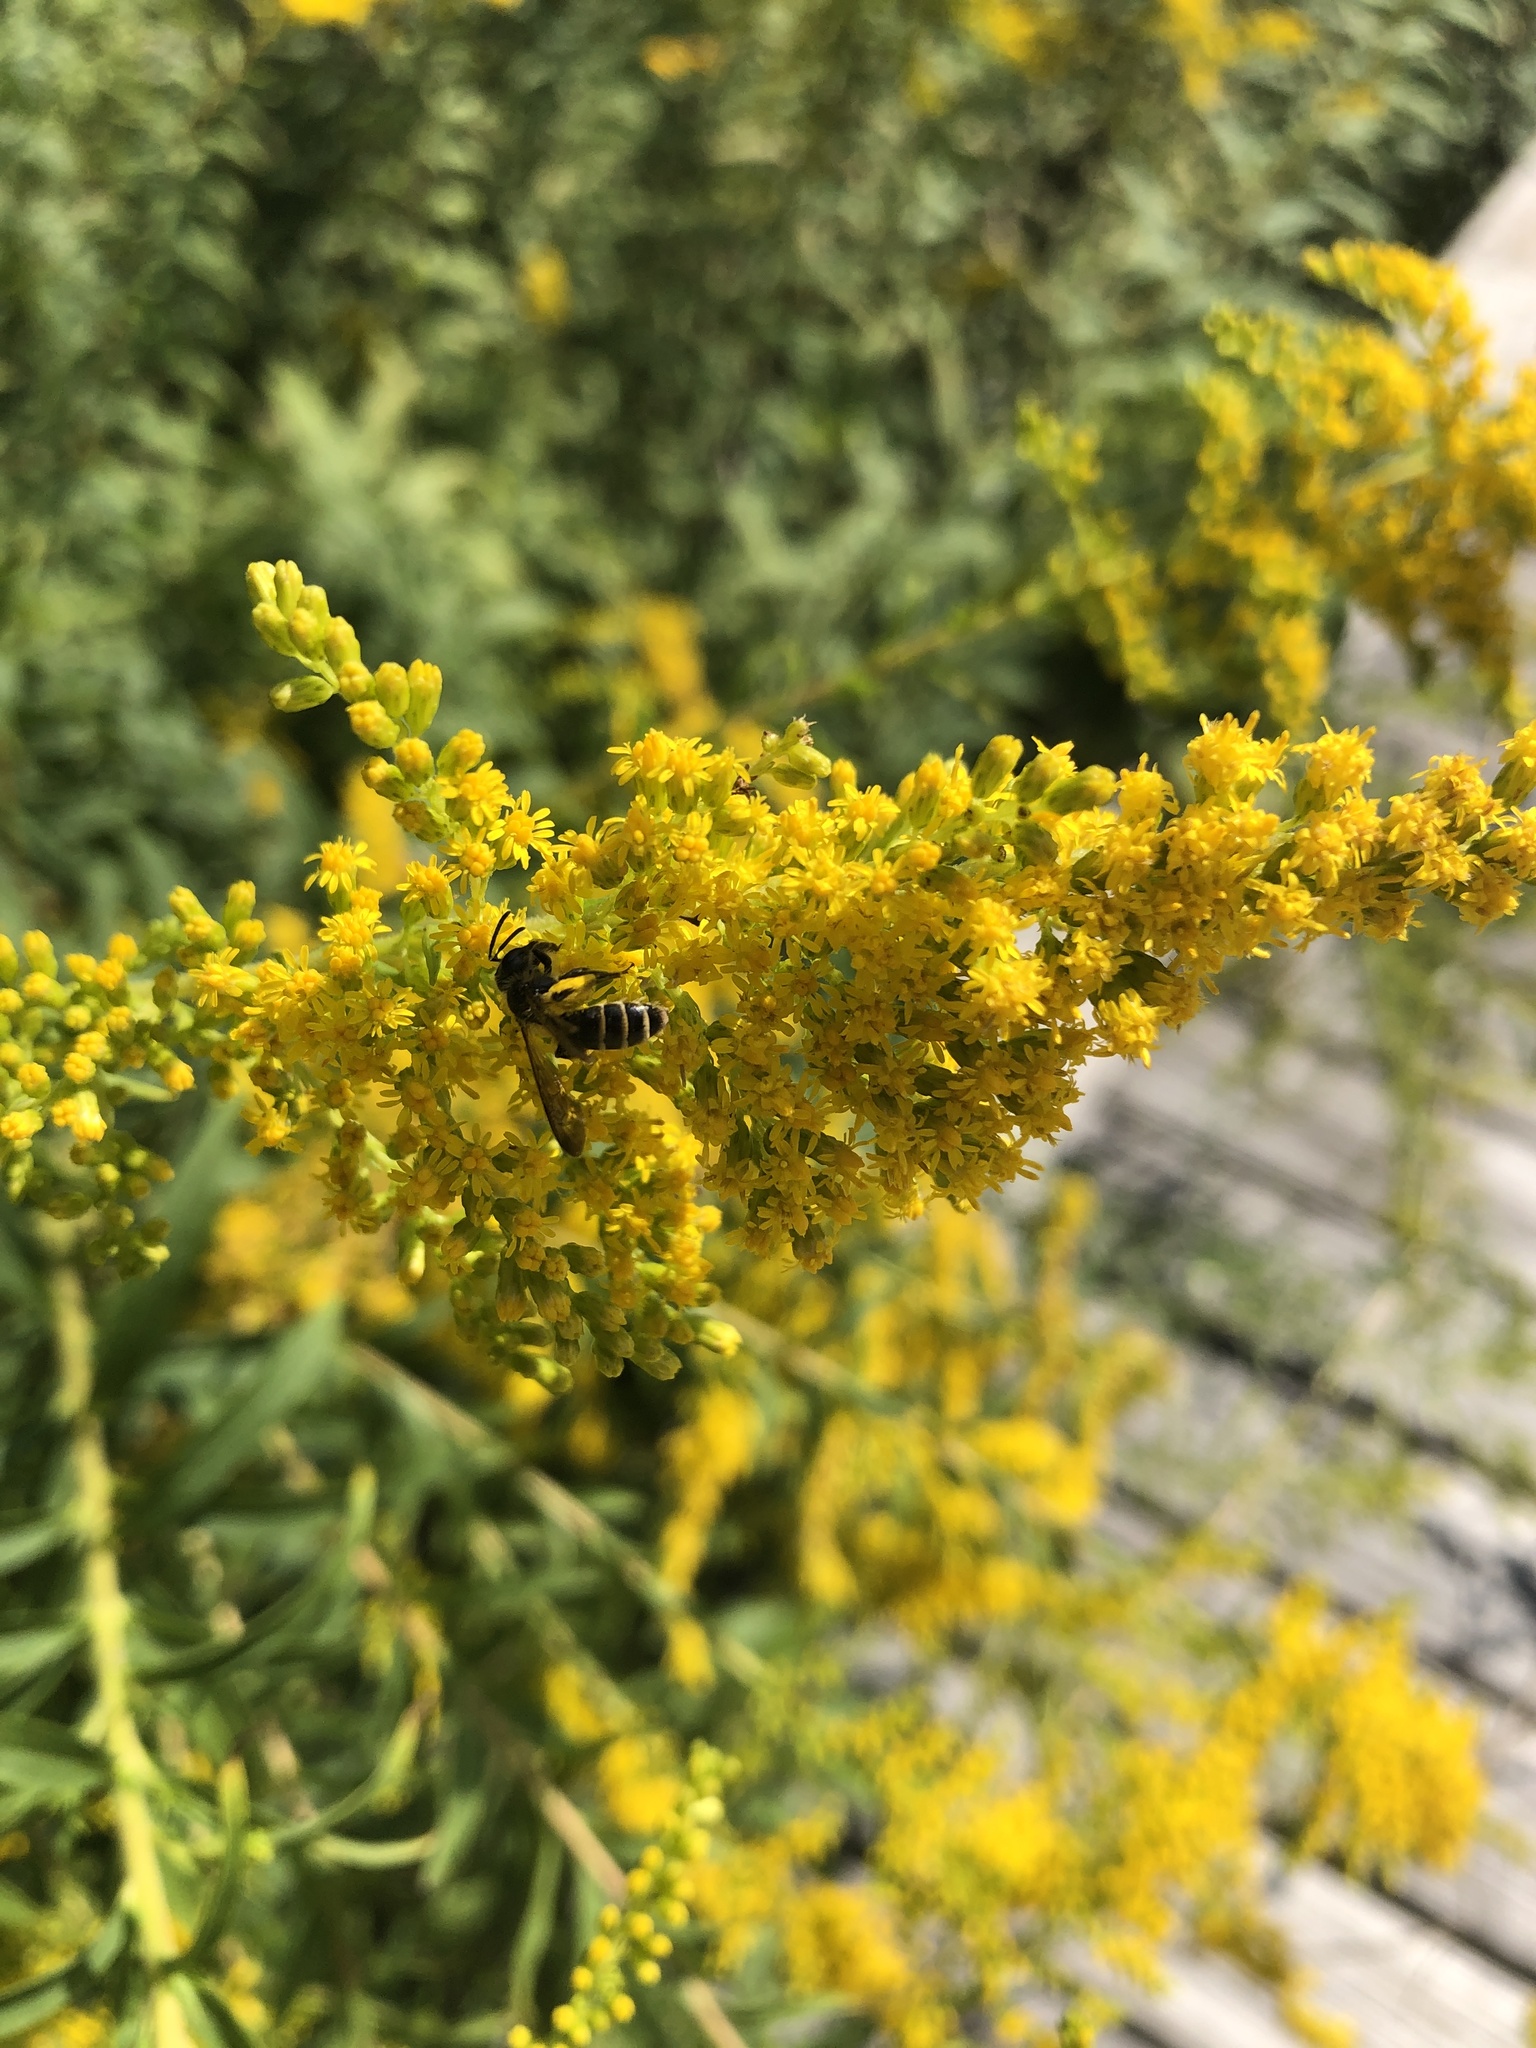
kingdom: Animalia
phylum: Arthropoda
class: Insecta
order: Hymenoptera
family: Andrenidae
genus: Andrena
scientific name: Andrena nubecula
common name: Cloudy-winged mining bee
